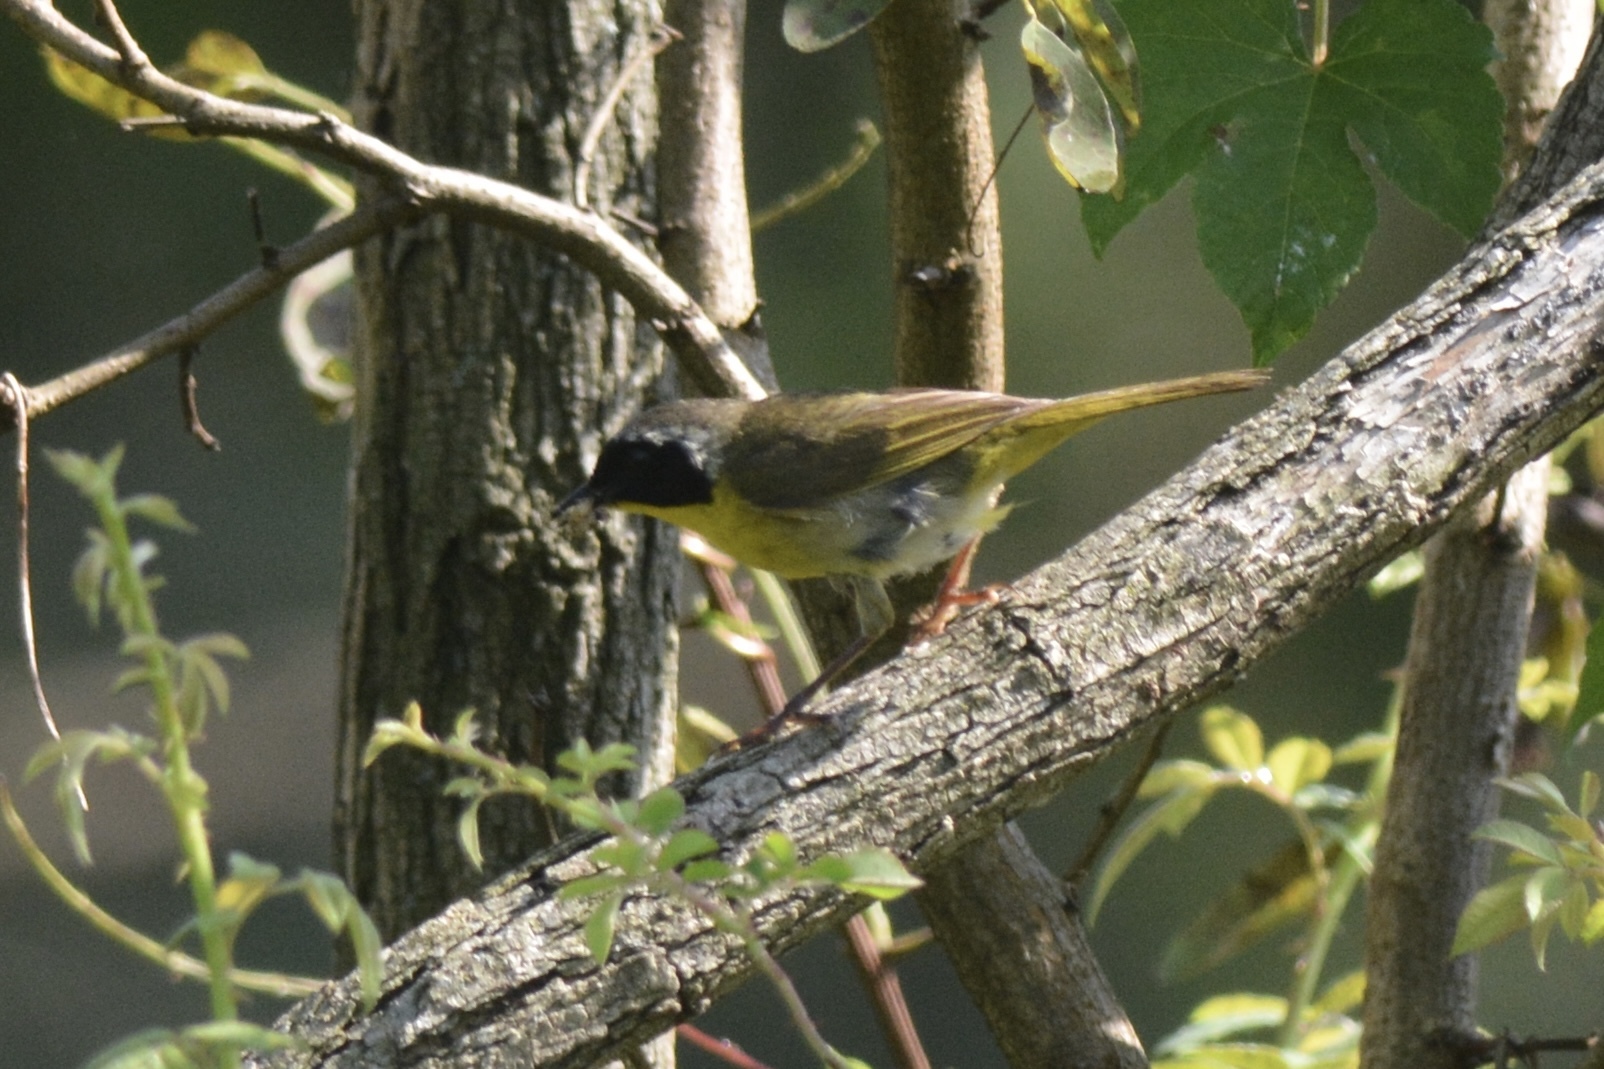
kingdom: Animalia
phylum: Chordata
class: Aves
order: Passeriformes
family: Parulidae
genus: Geothlypis
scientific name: Geothlypis trichas
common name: Common yellowthroat
